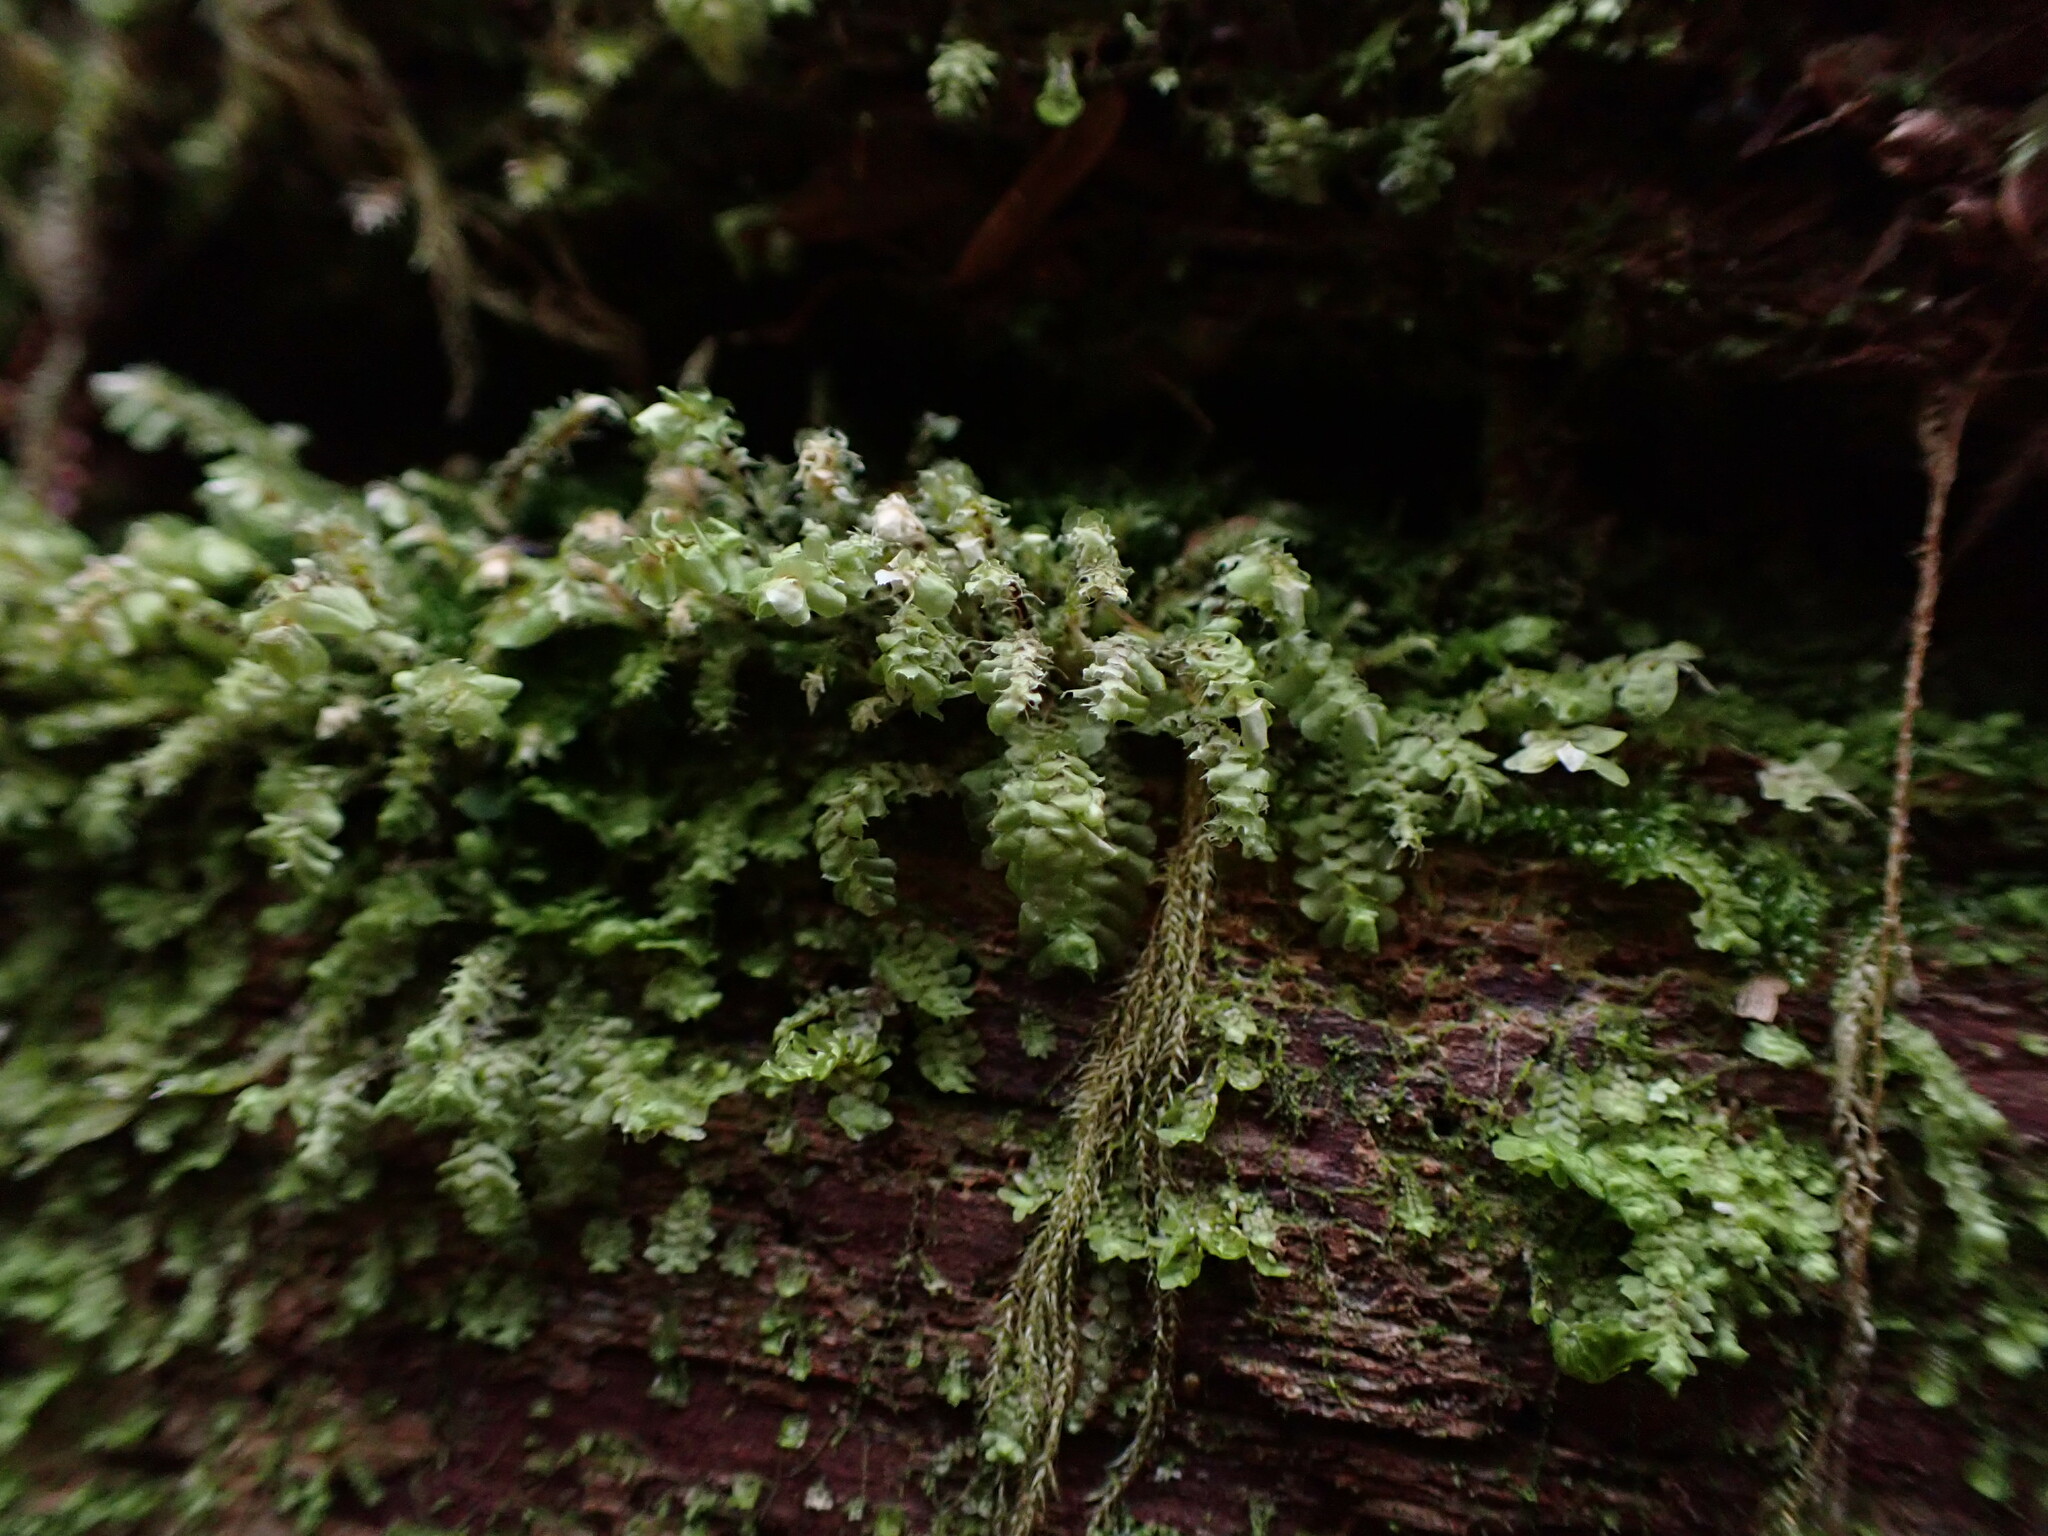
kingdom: Plantae
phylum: Marchantiophyta
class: Jungermanniopsida
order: Jungermanniales
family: Scapaniaceae
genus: Scapania
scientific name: Scapania bolanderi
